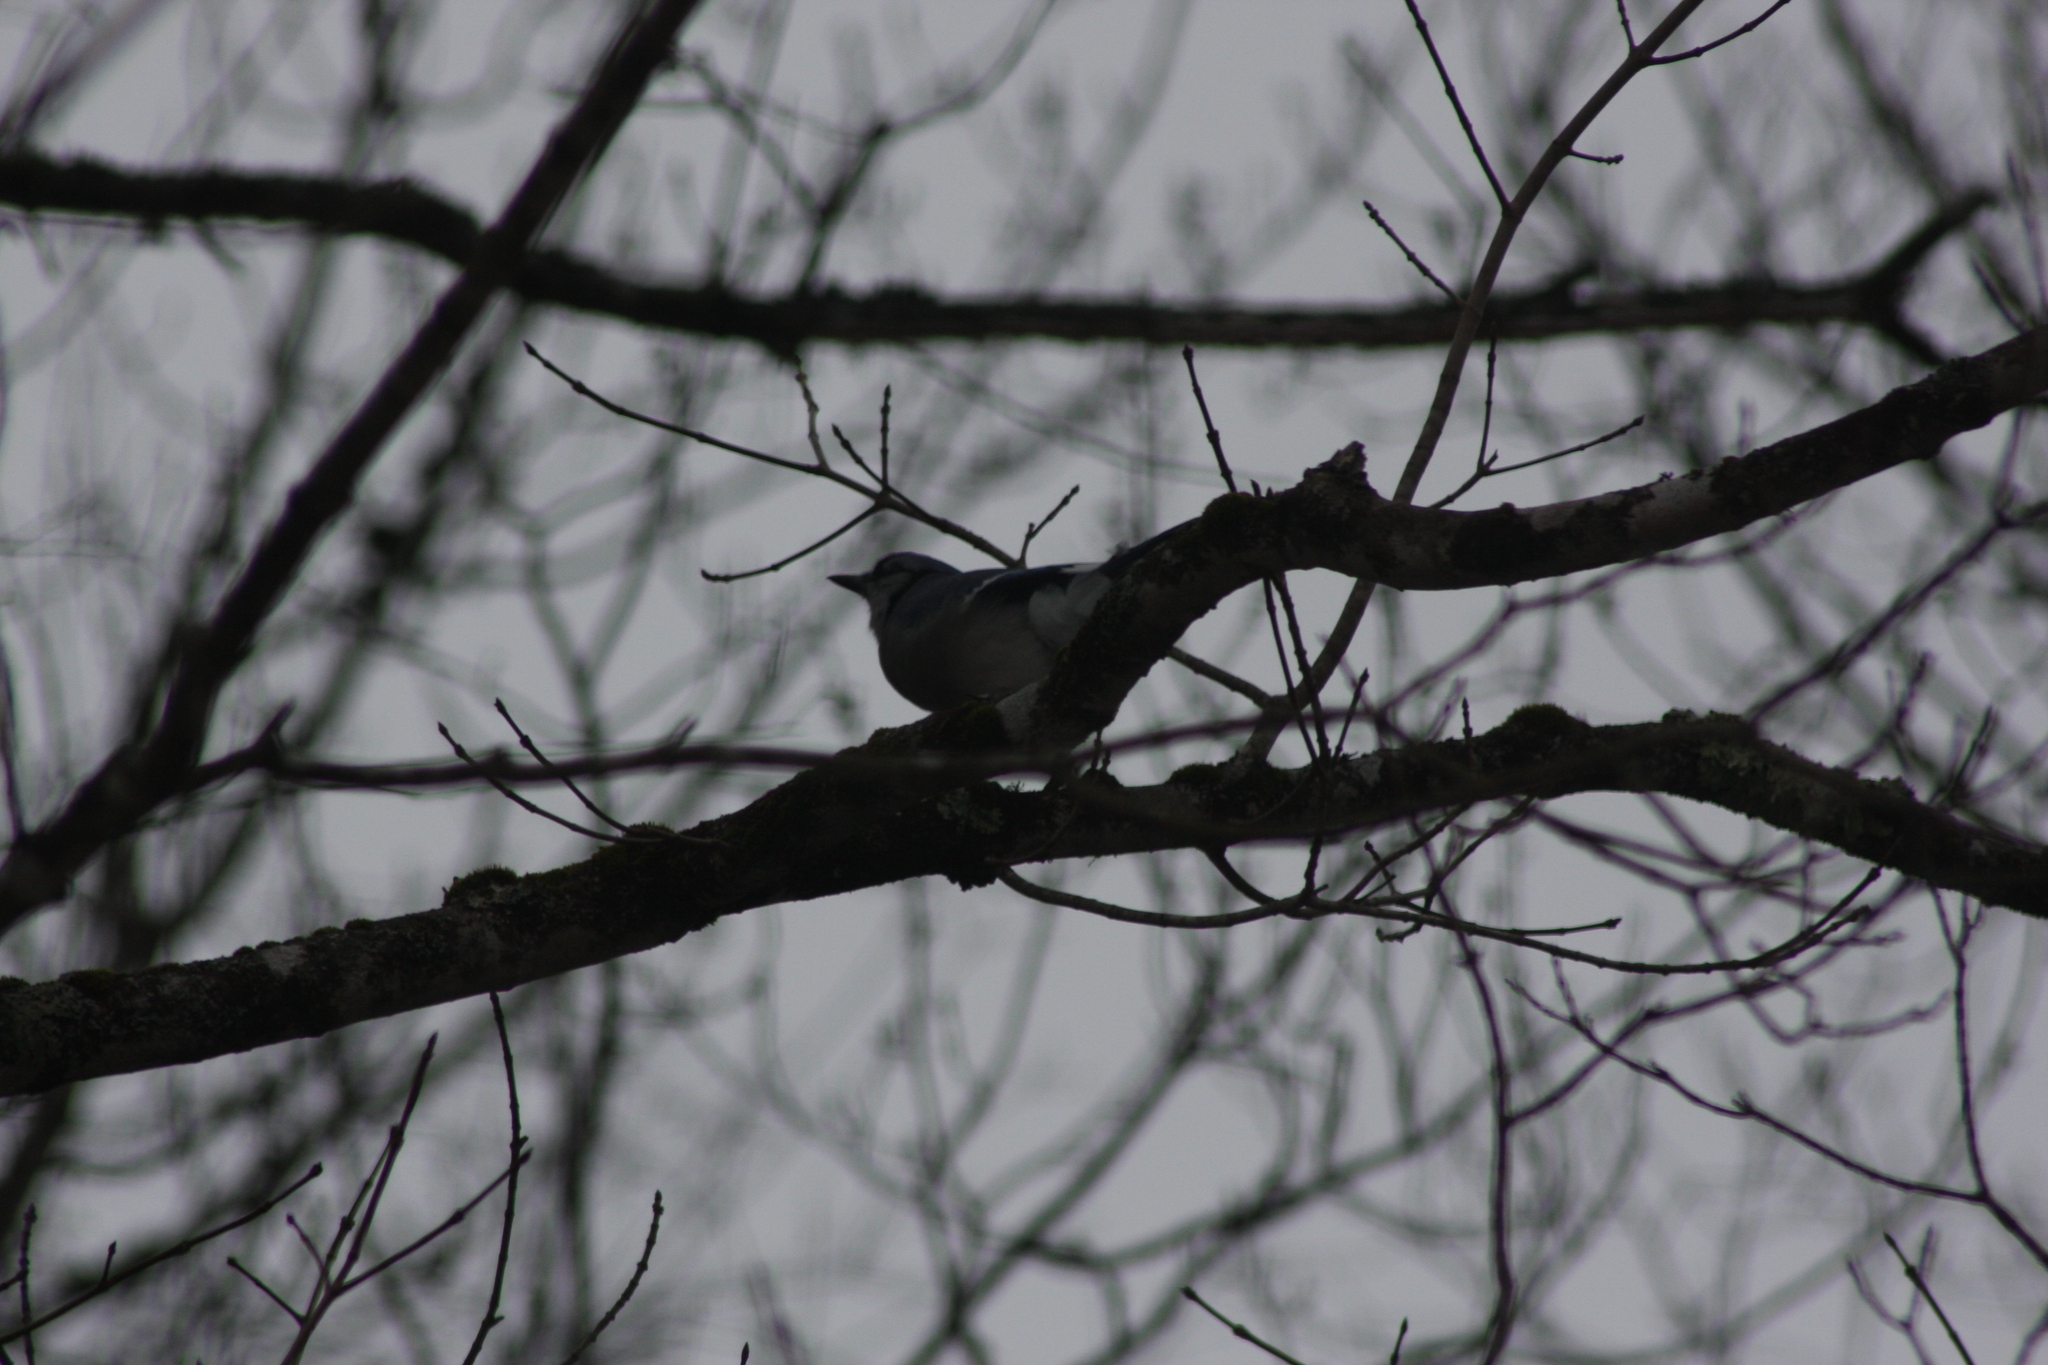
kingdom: Animalia
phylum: Chordata
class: Aves
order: Passeriformes
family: Corvidae
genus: Cyanocitta
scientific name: Cyanocitta cristata
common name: Blue jay
